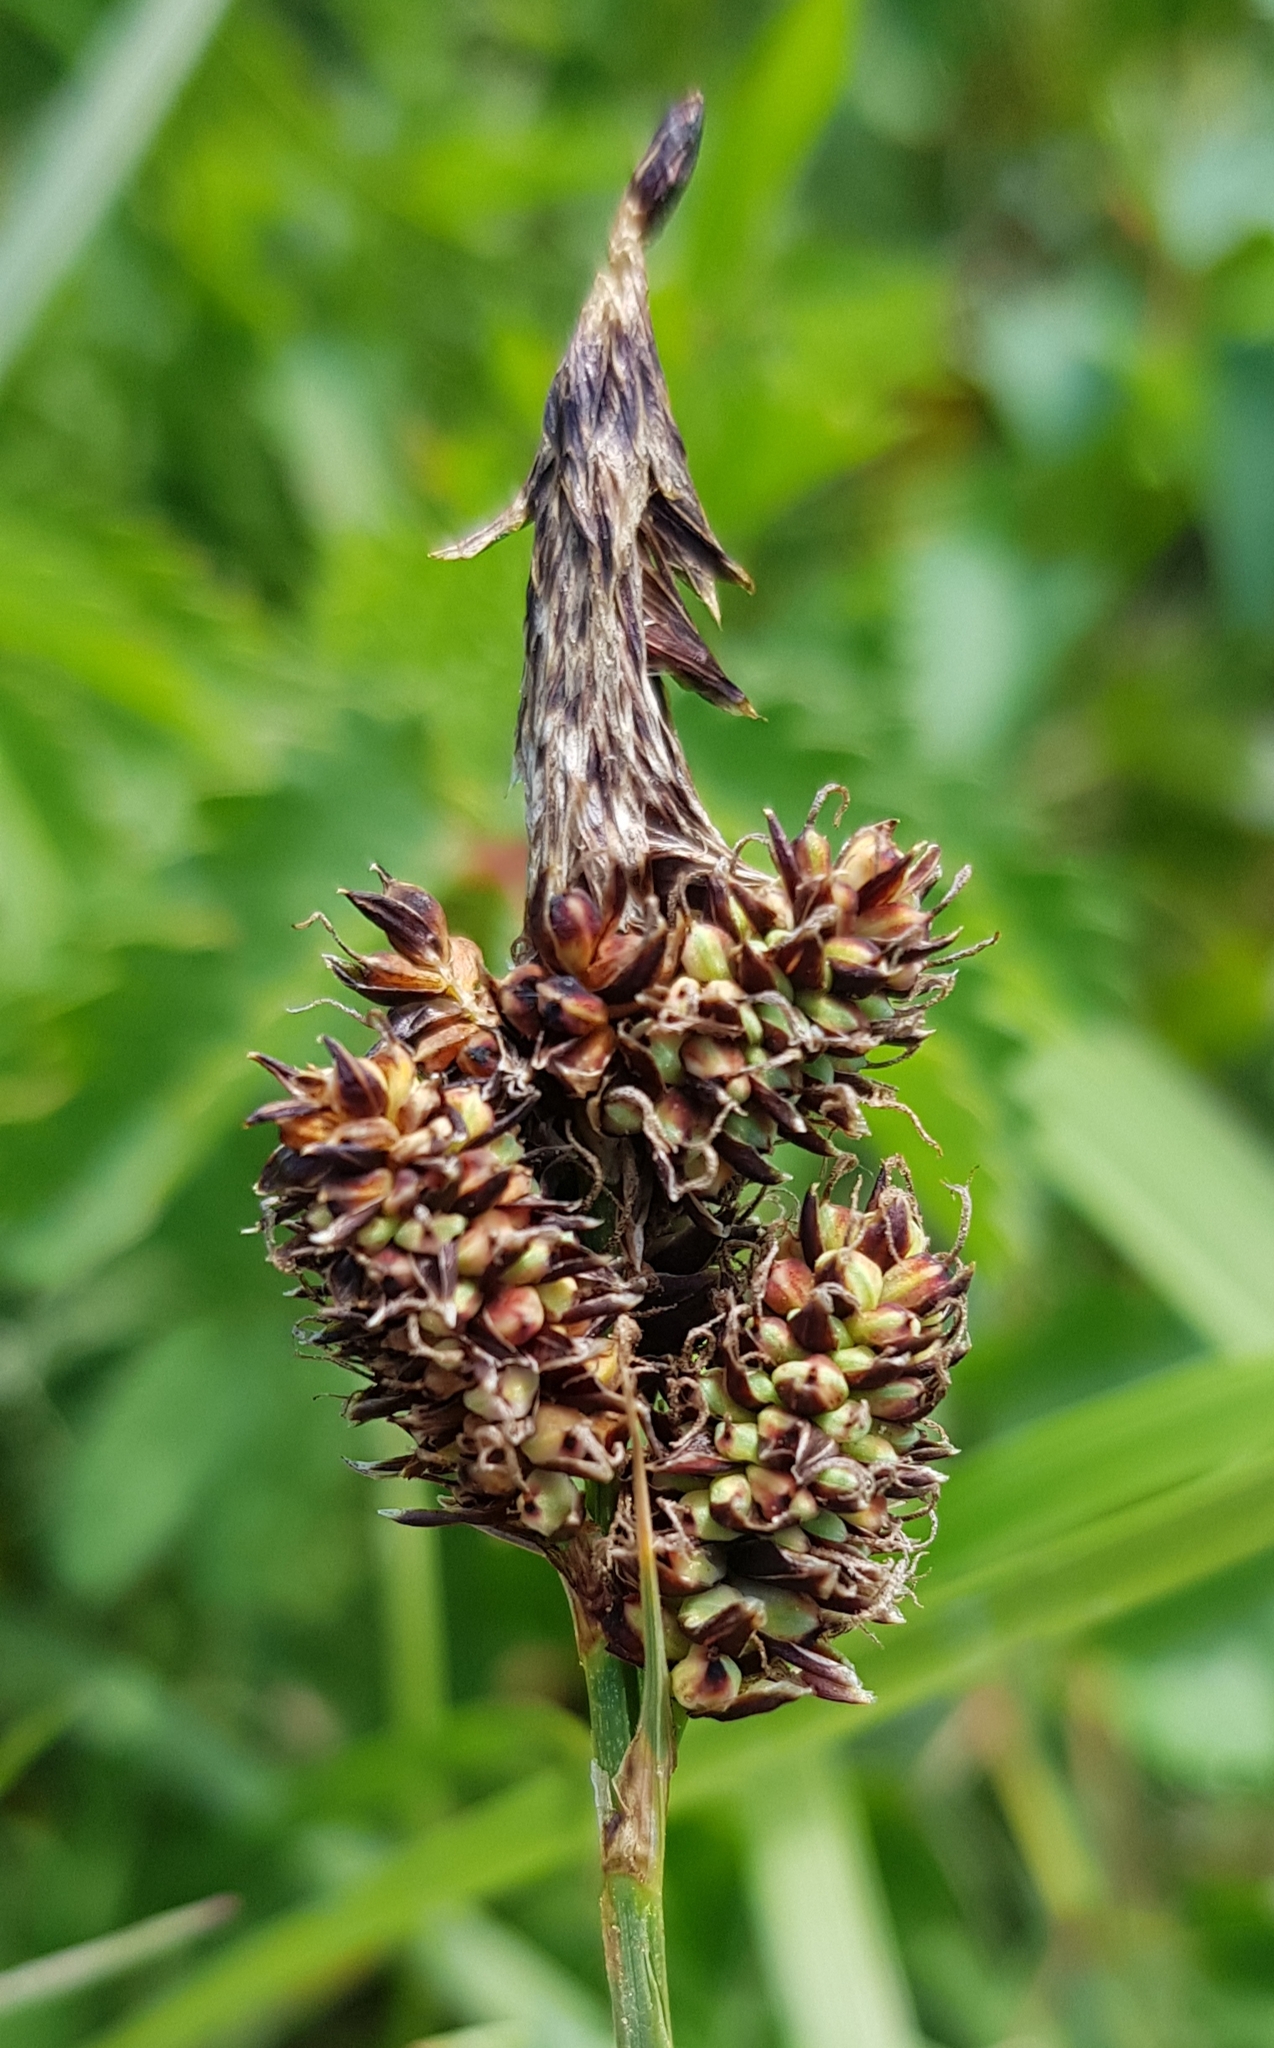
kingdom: Plantae
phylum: Tracheophyta
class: Liliopsida
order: Poales
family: Cyperaceae
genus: Carex
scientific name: Carex media
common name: Alpine sedge
